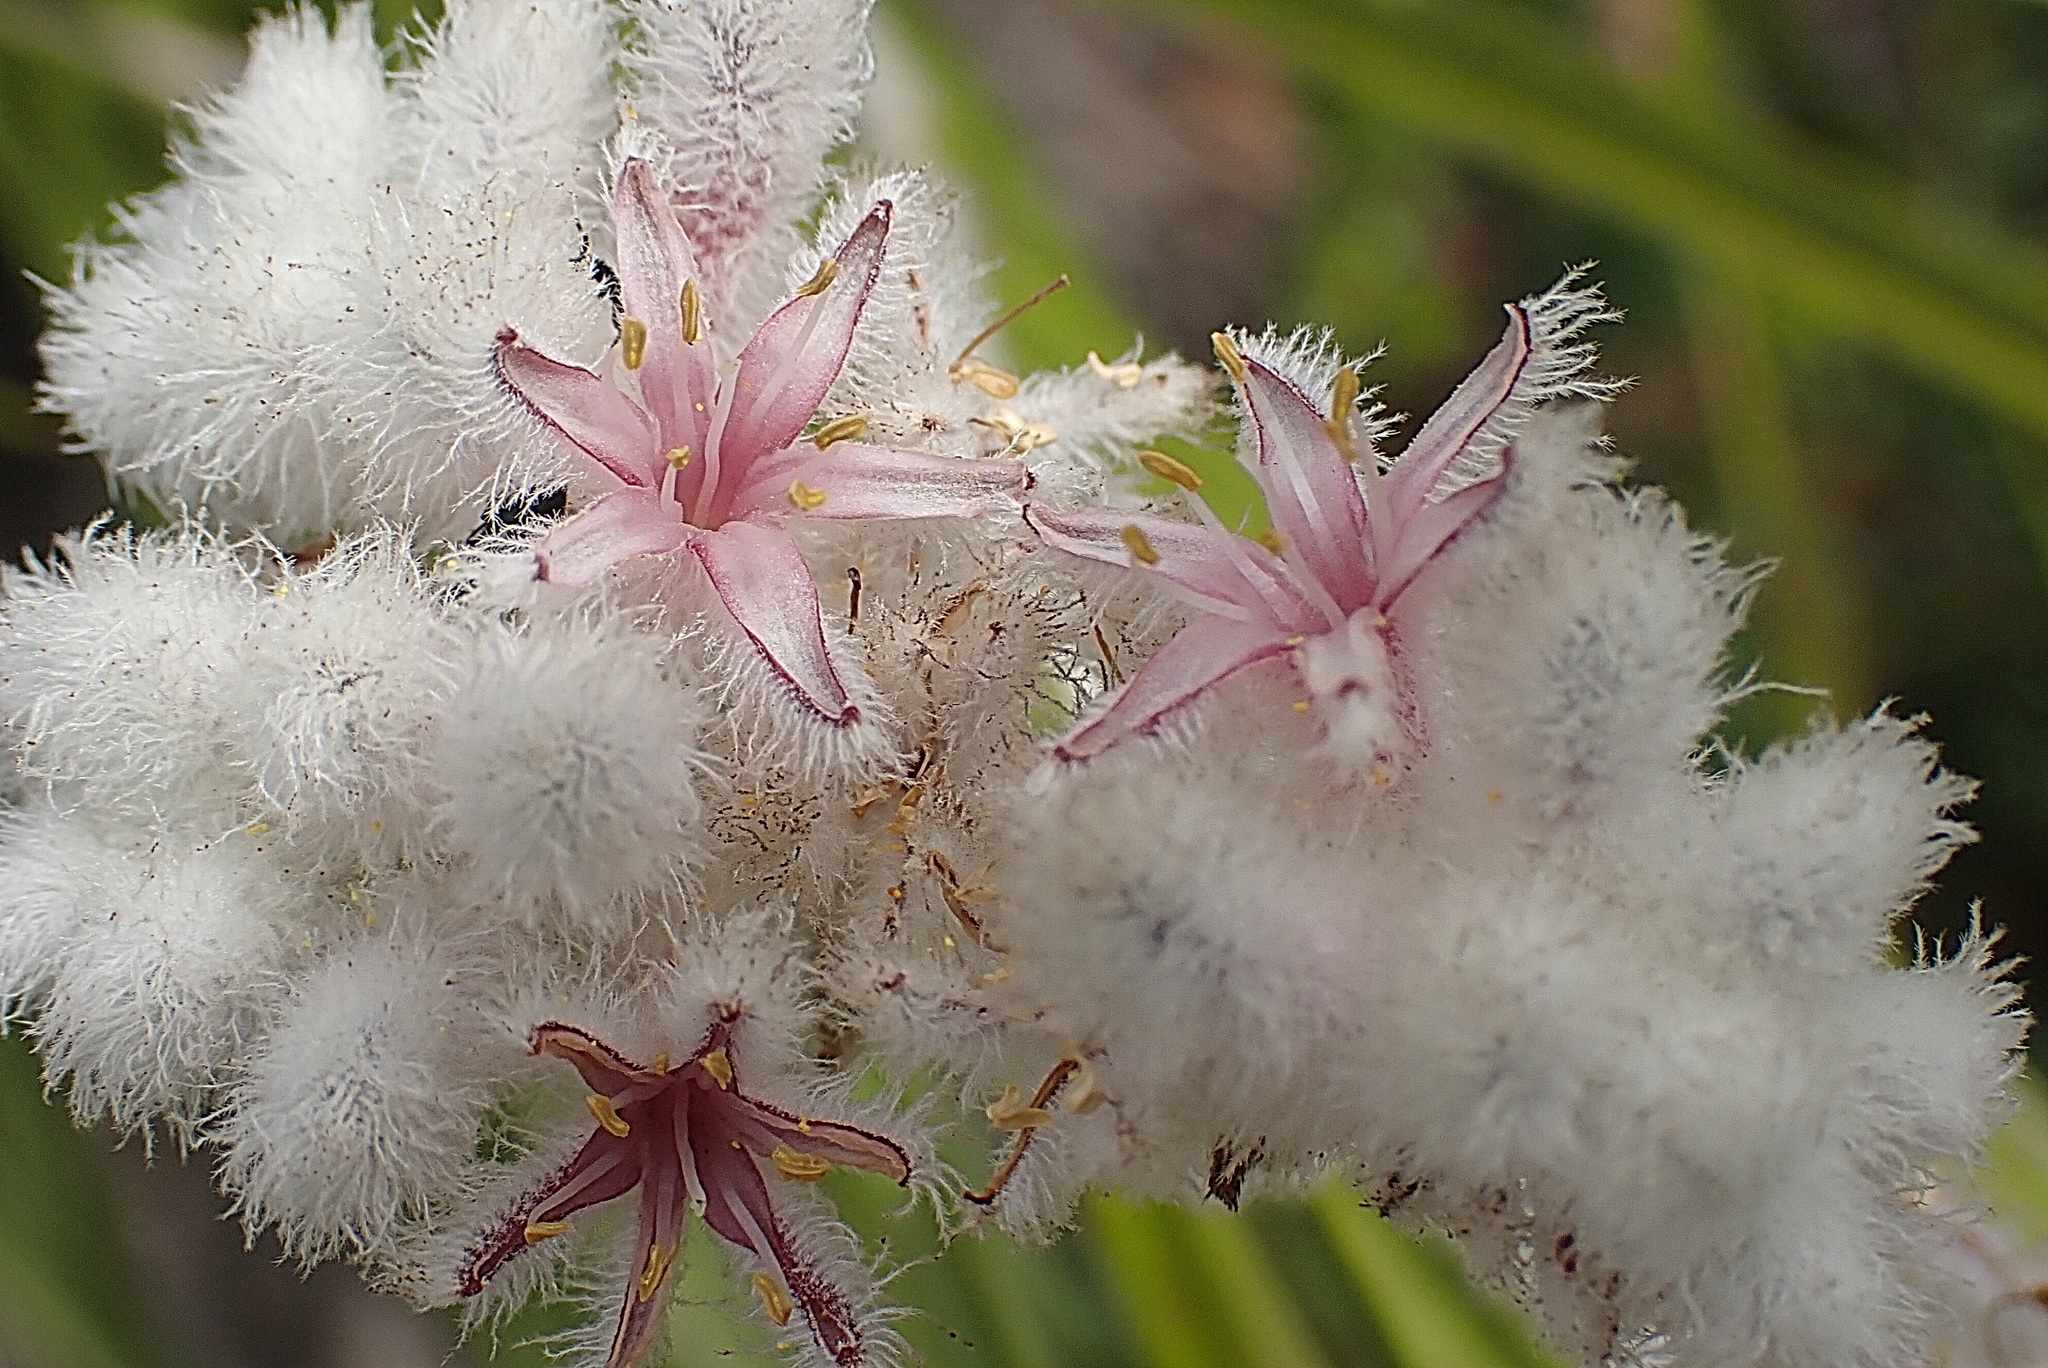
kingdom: Plantae
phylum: Tracheophyta
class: Liliopsida
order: Asparagales
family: Lanariaceae
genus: Lanaria
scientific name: Lanaria lanata
